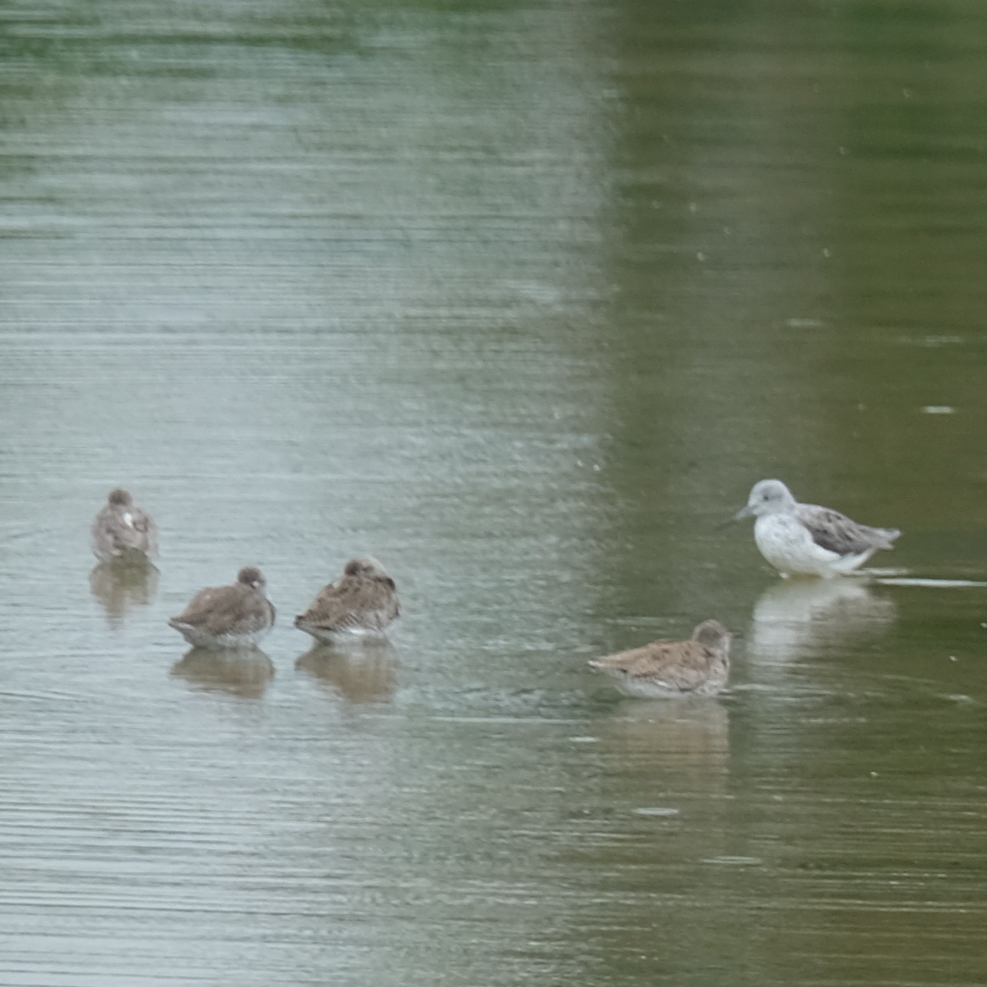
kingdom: Animalia
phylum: Chordata
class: Aves
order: Charadriiformes
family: Scolopacidae
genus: Tringa
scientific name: Tringa nebularia
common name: Common greenshank
